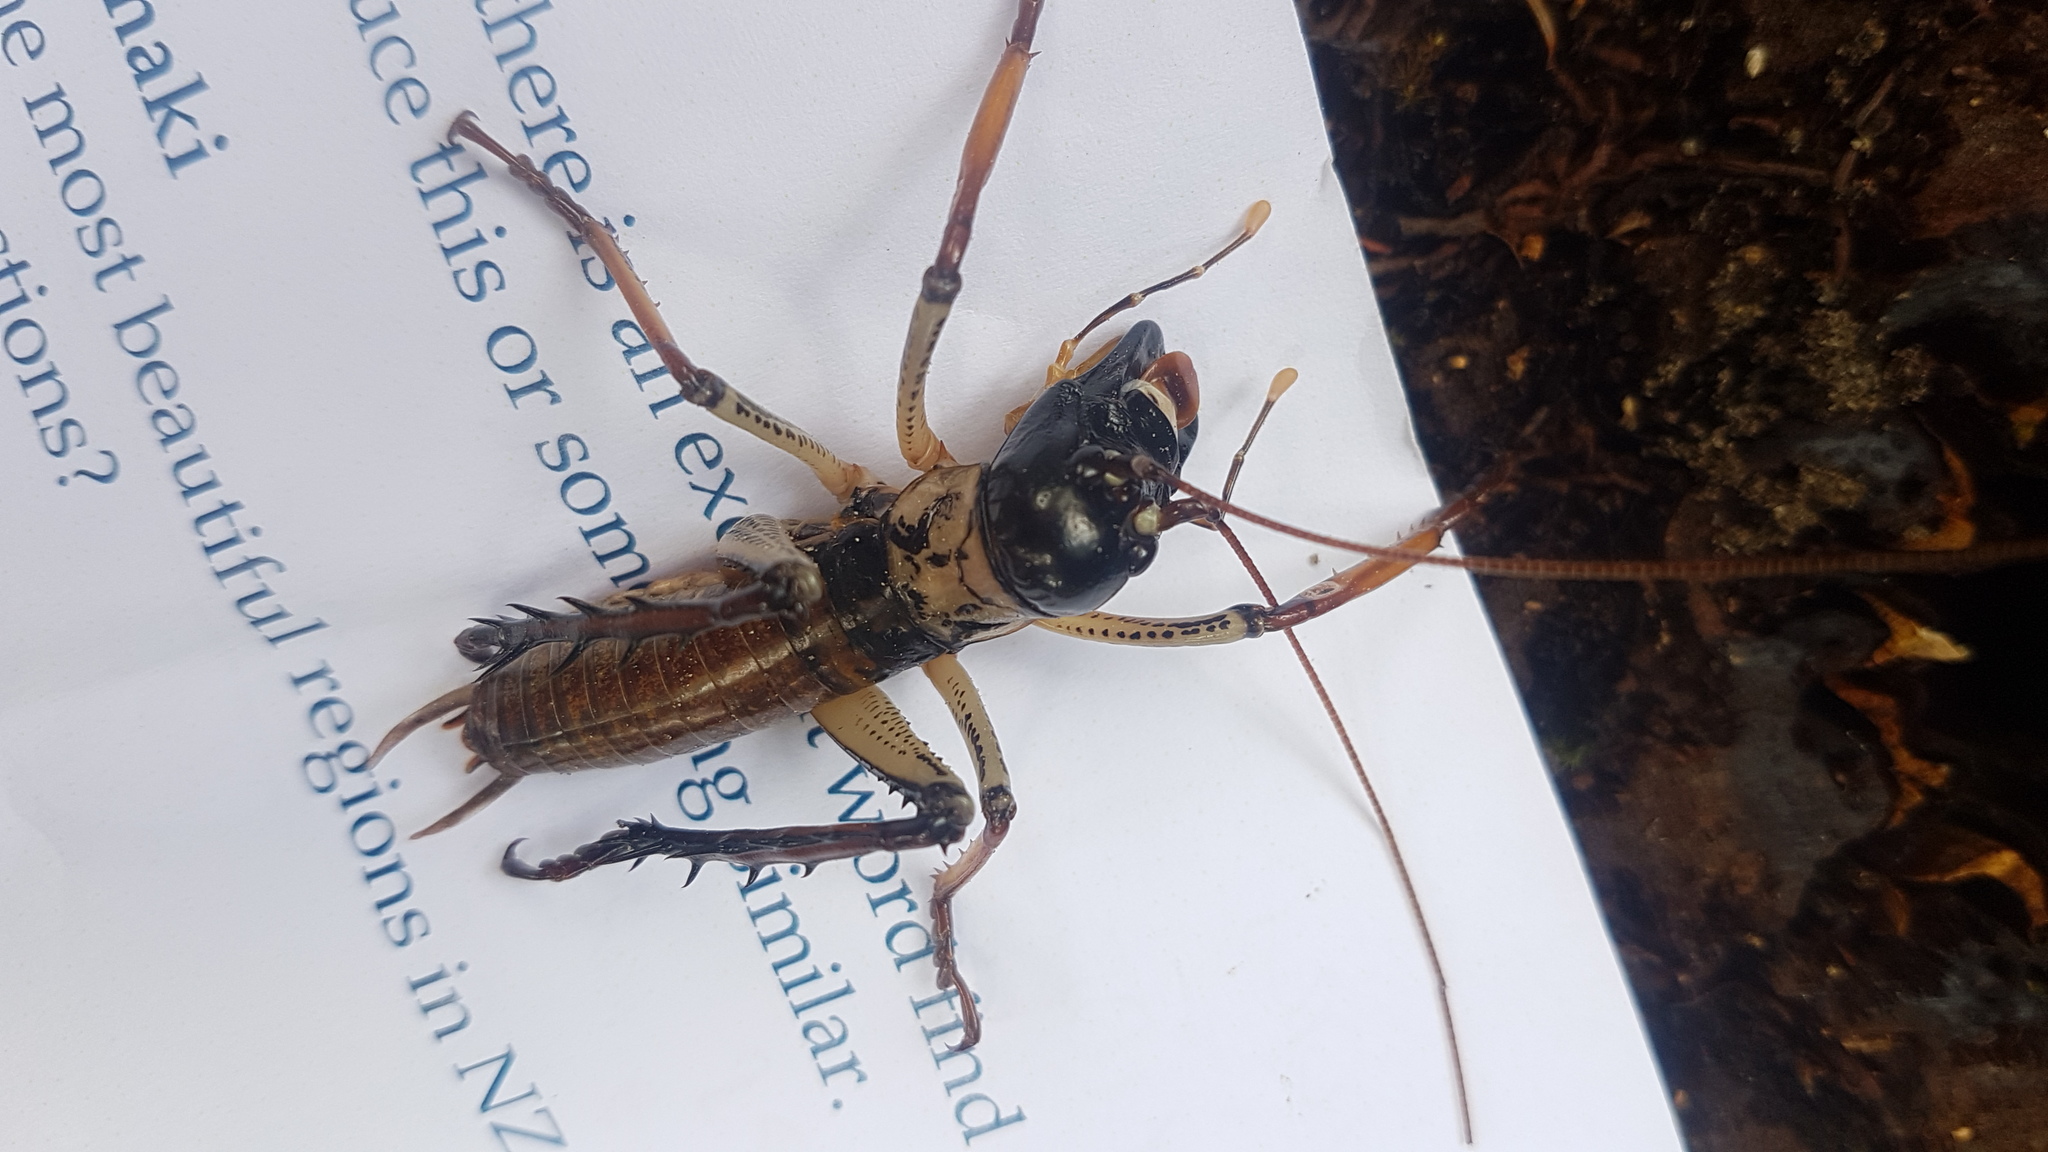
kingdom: Animalia
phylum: Arthropoda
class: Insecta
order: Orthoptera
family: Anostostomatidae
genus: Hemideina
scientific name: Hemideina thoracica
